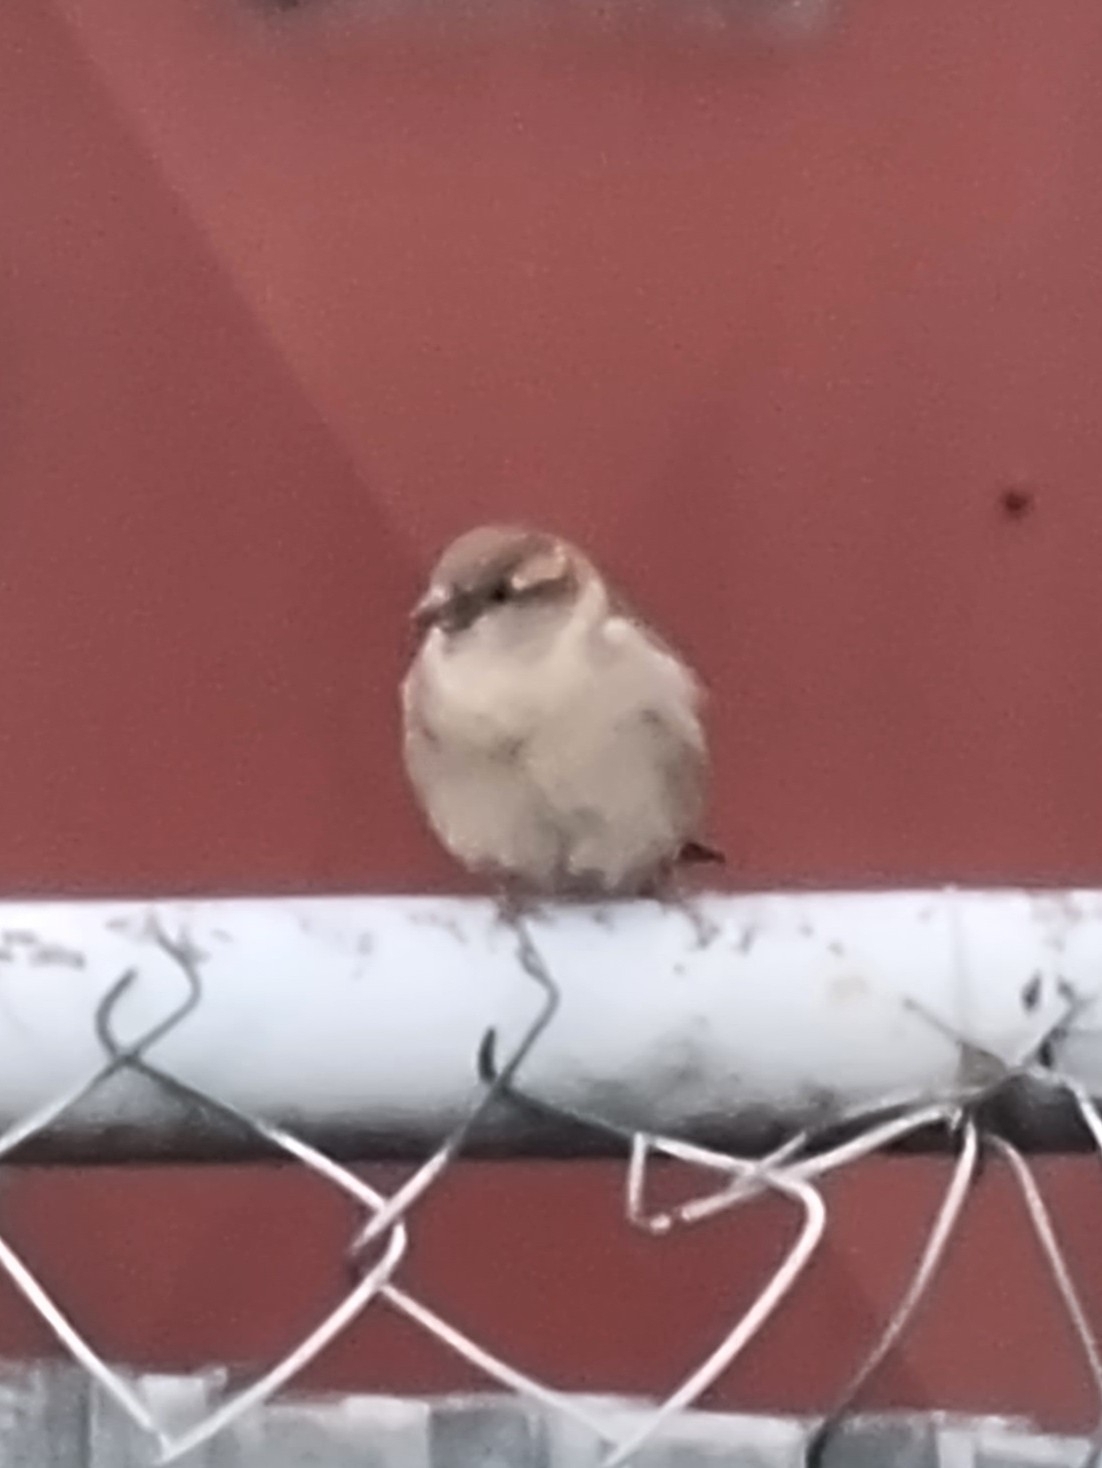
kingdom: Animalia
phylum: Chordata
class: Aves
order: Passeriformes
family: Passeridae
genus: Passer
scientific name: Passer domesticus
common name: House sparrow
